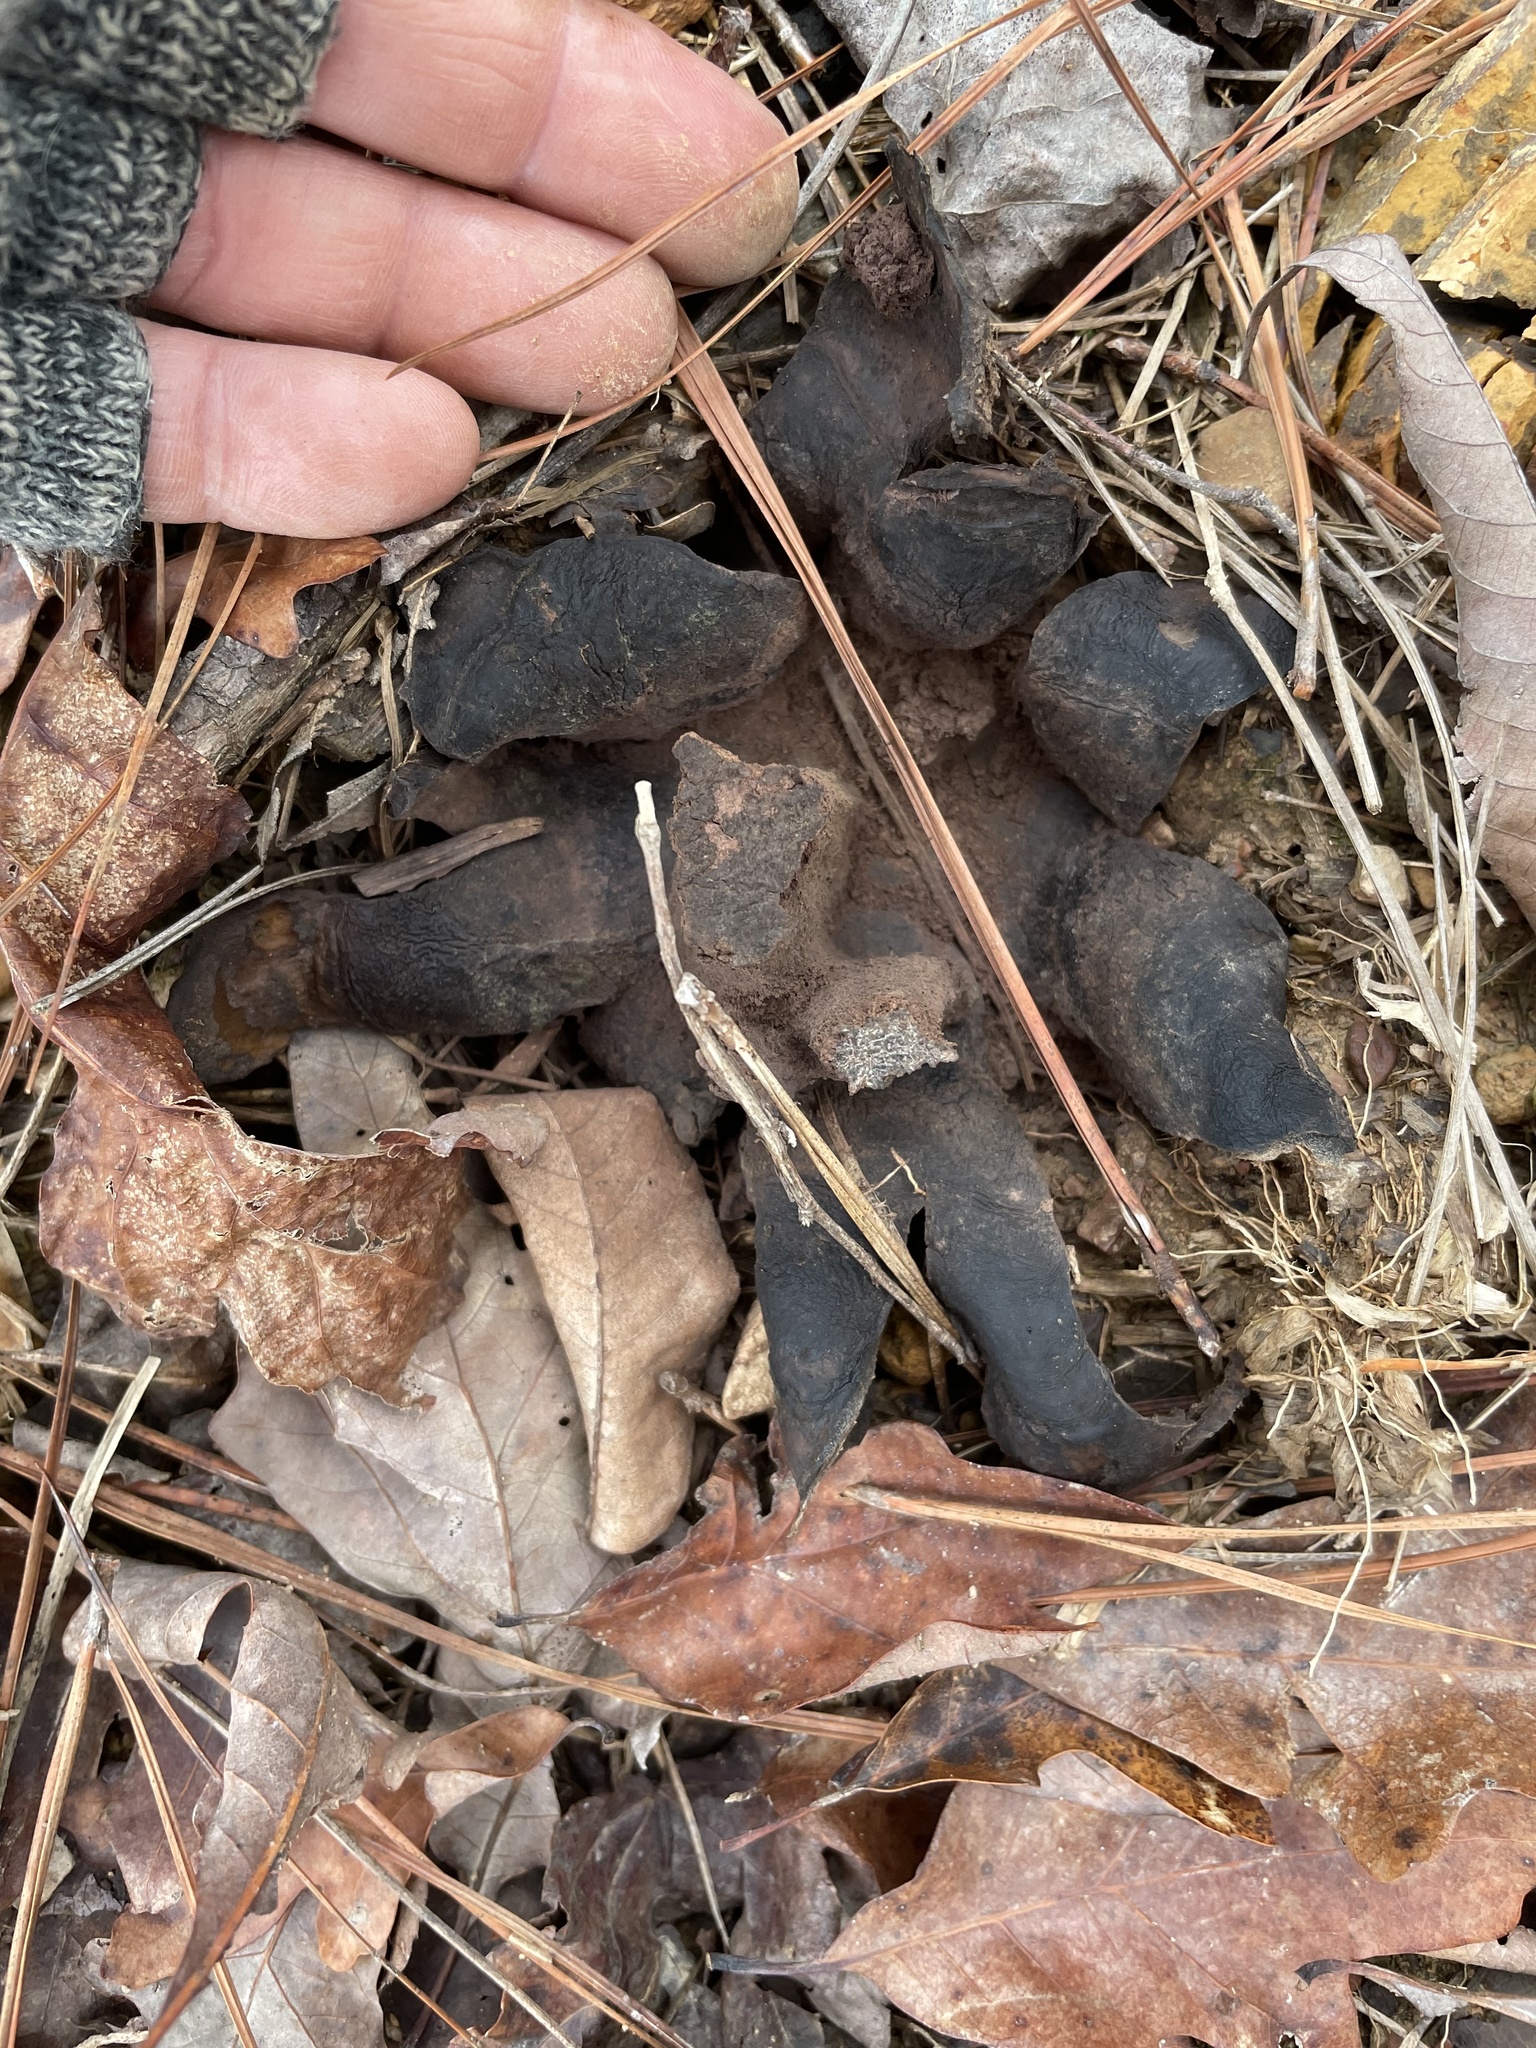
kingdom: Fungi
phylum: Basidiomycota
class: Agaricomycetes
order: Boletales
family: Sclerodermataceae
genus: Scleroderma
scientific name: Scleroderma polyrhizum
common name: Many-rooted earthball
